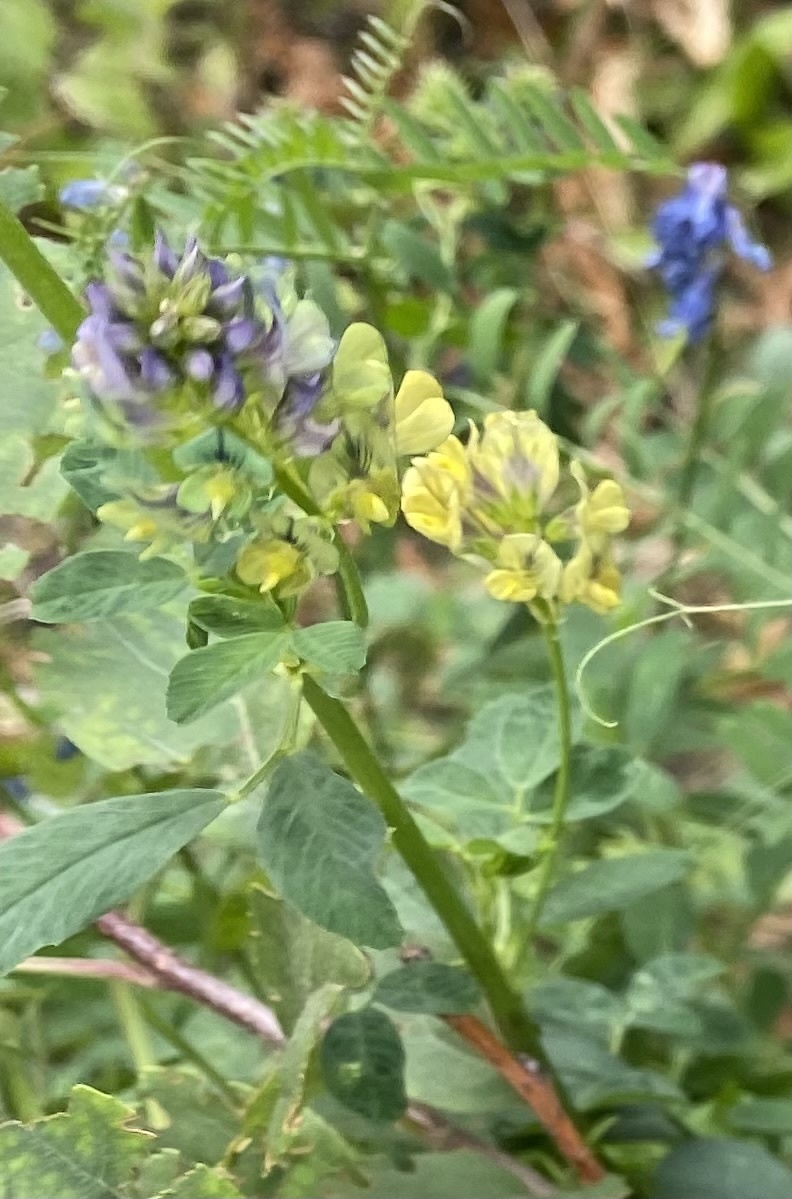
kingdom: Plantae
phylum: Tracheophyta
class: Magnoliopsida
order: Fabales
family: Fabaceae
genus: Medicago
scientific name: Medicago varia
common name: Sand lucerne
